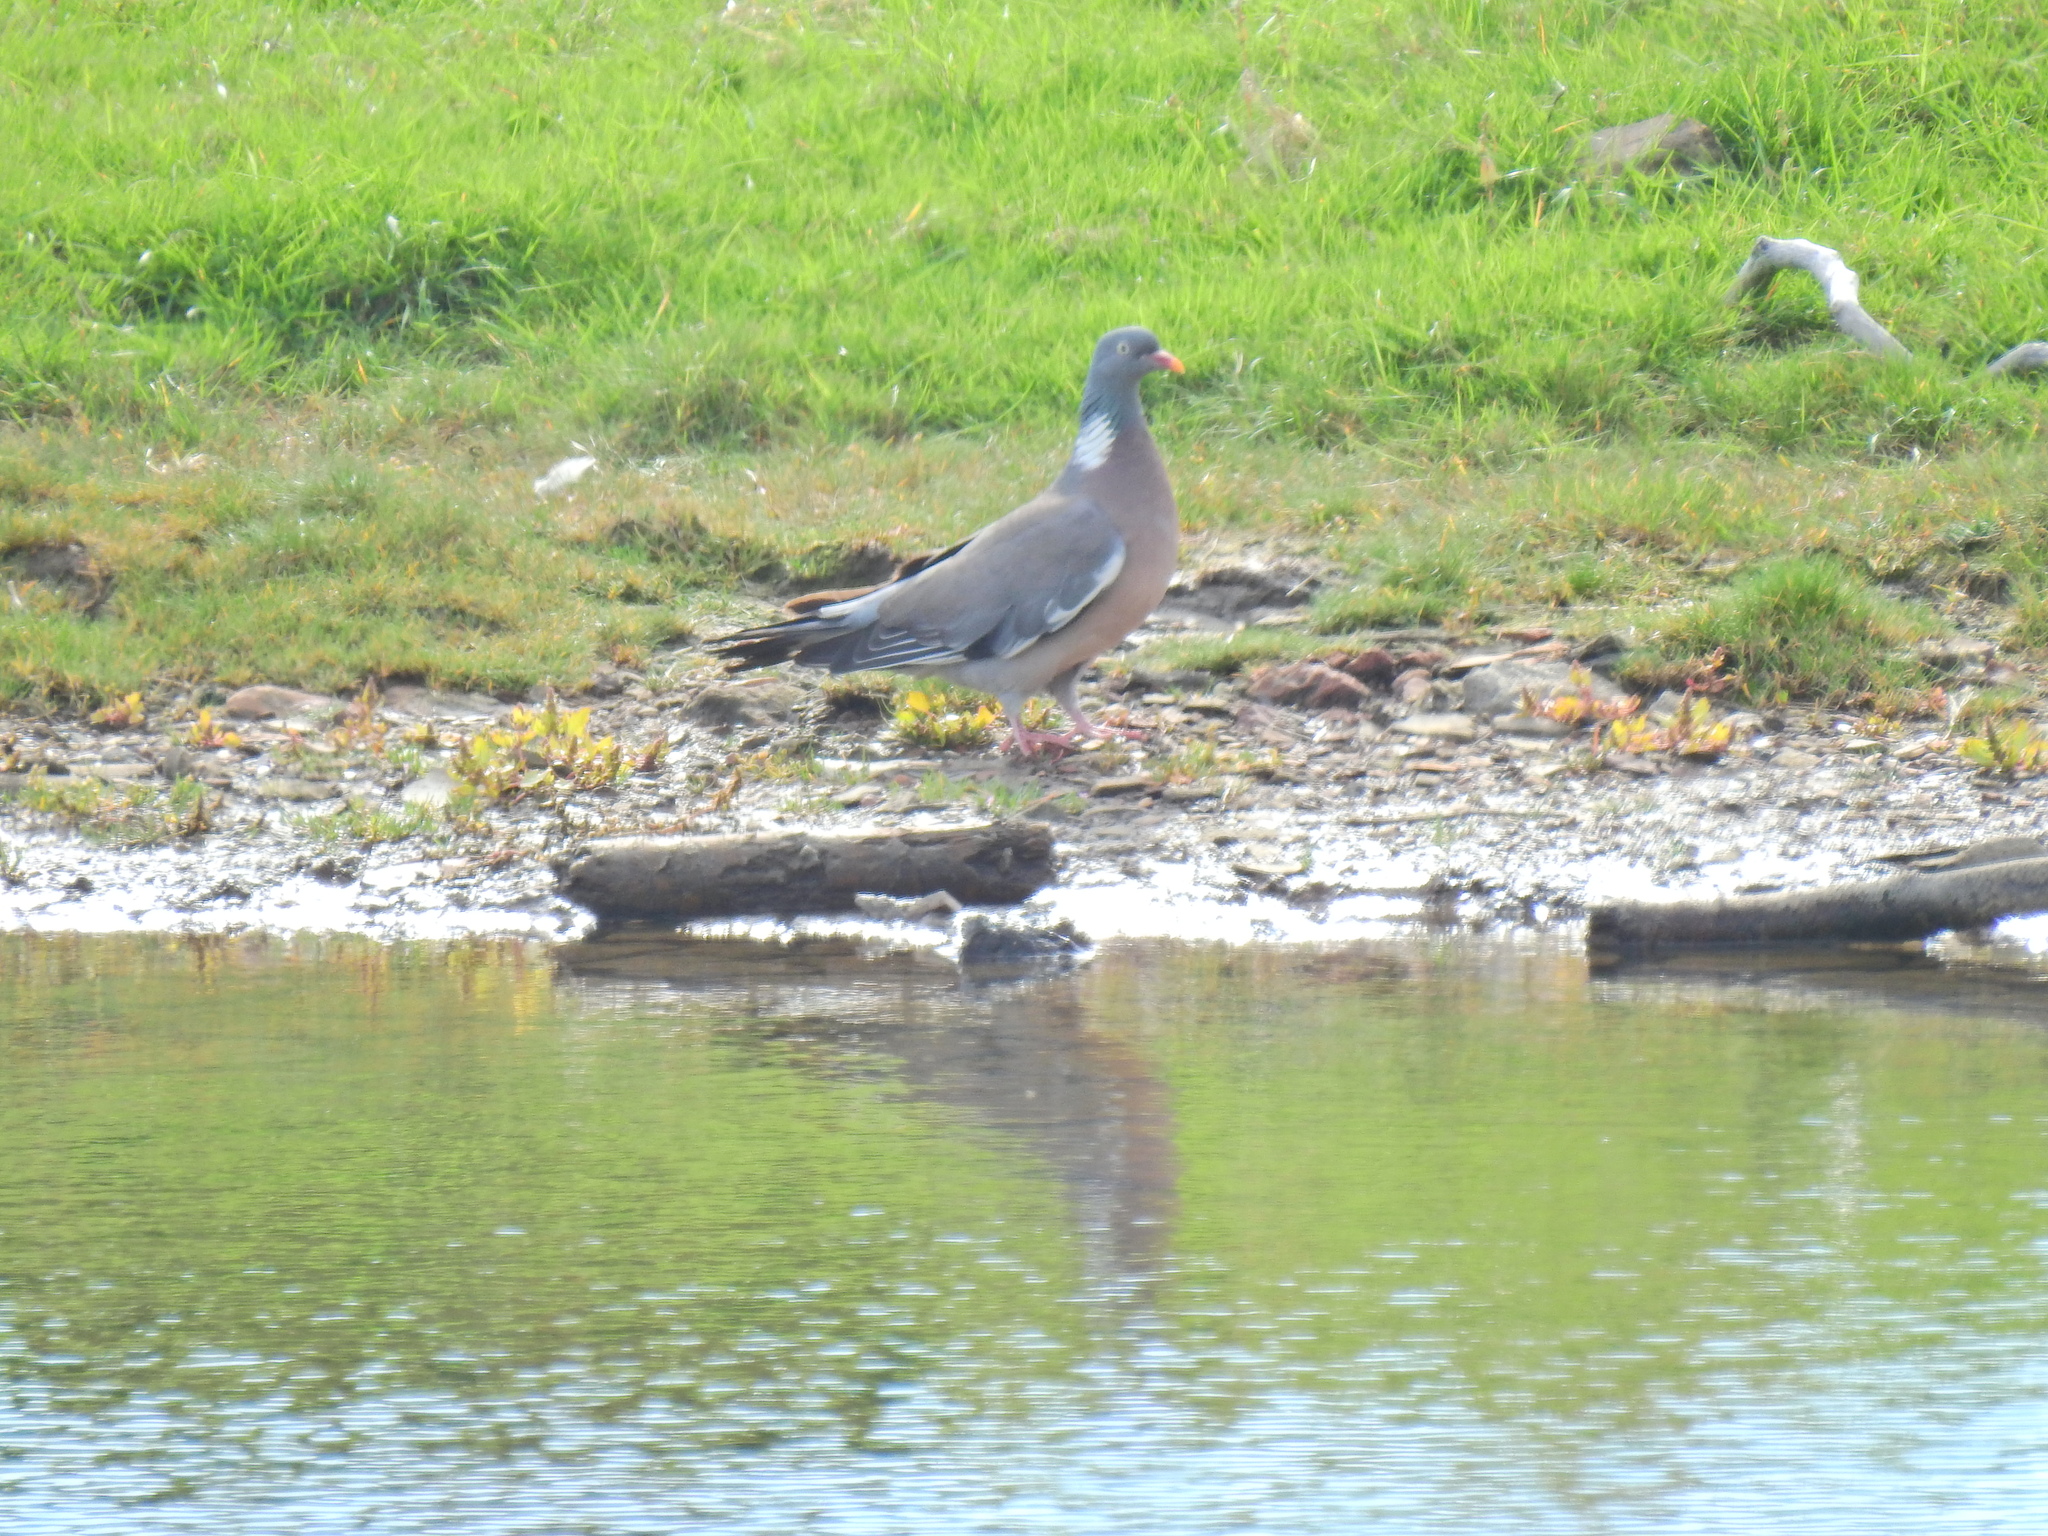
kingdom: Animalia
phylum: Chordata
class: Aves
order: Columbiformes
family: Columbidae
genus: Columba
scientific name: Columba palumbus
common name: Common wood pigeon
